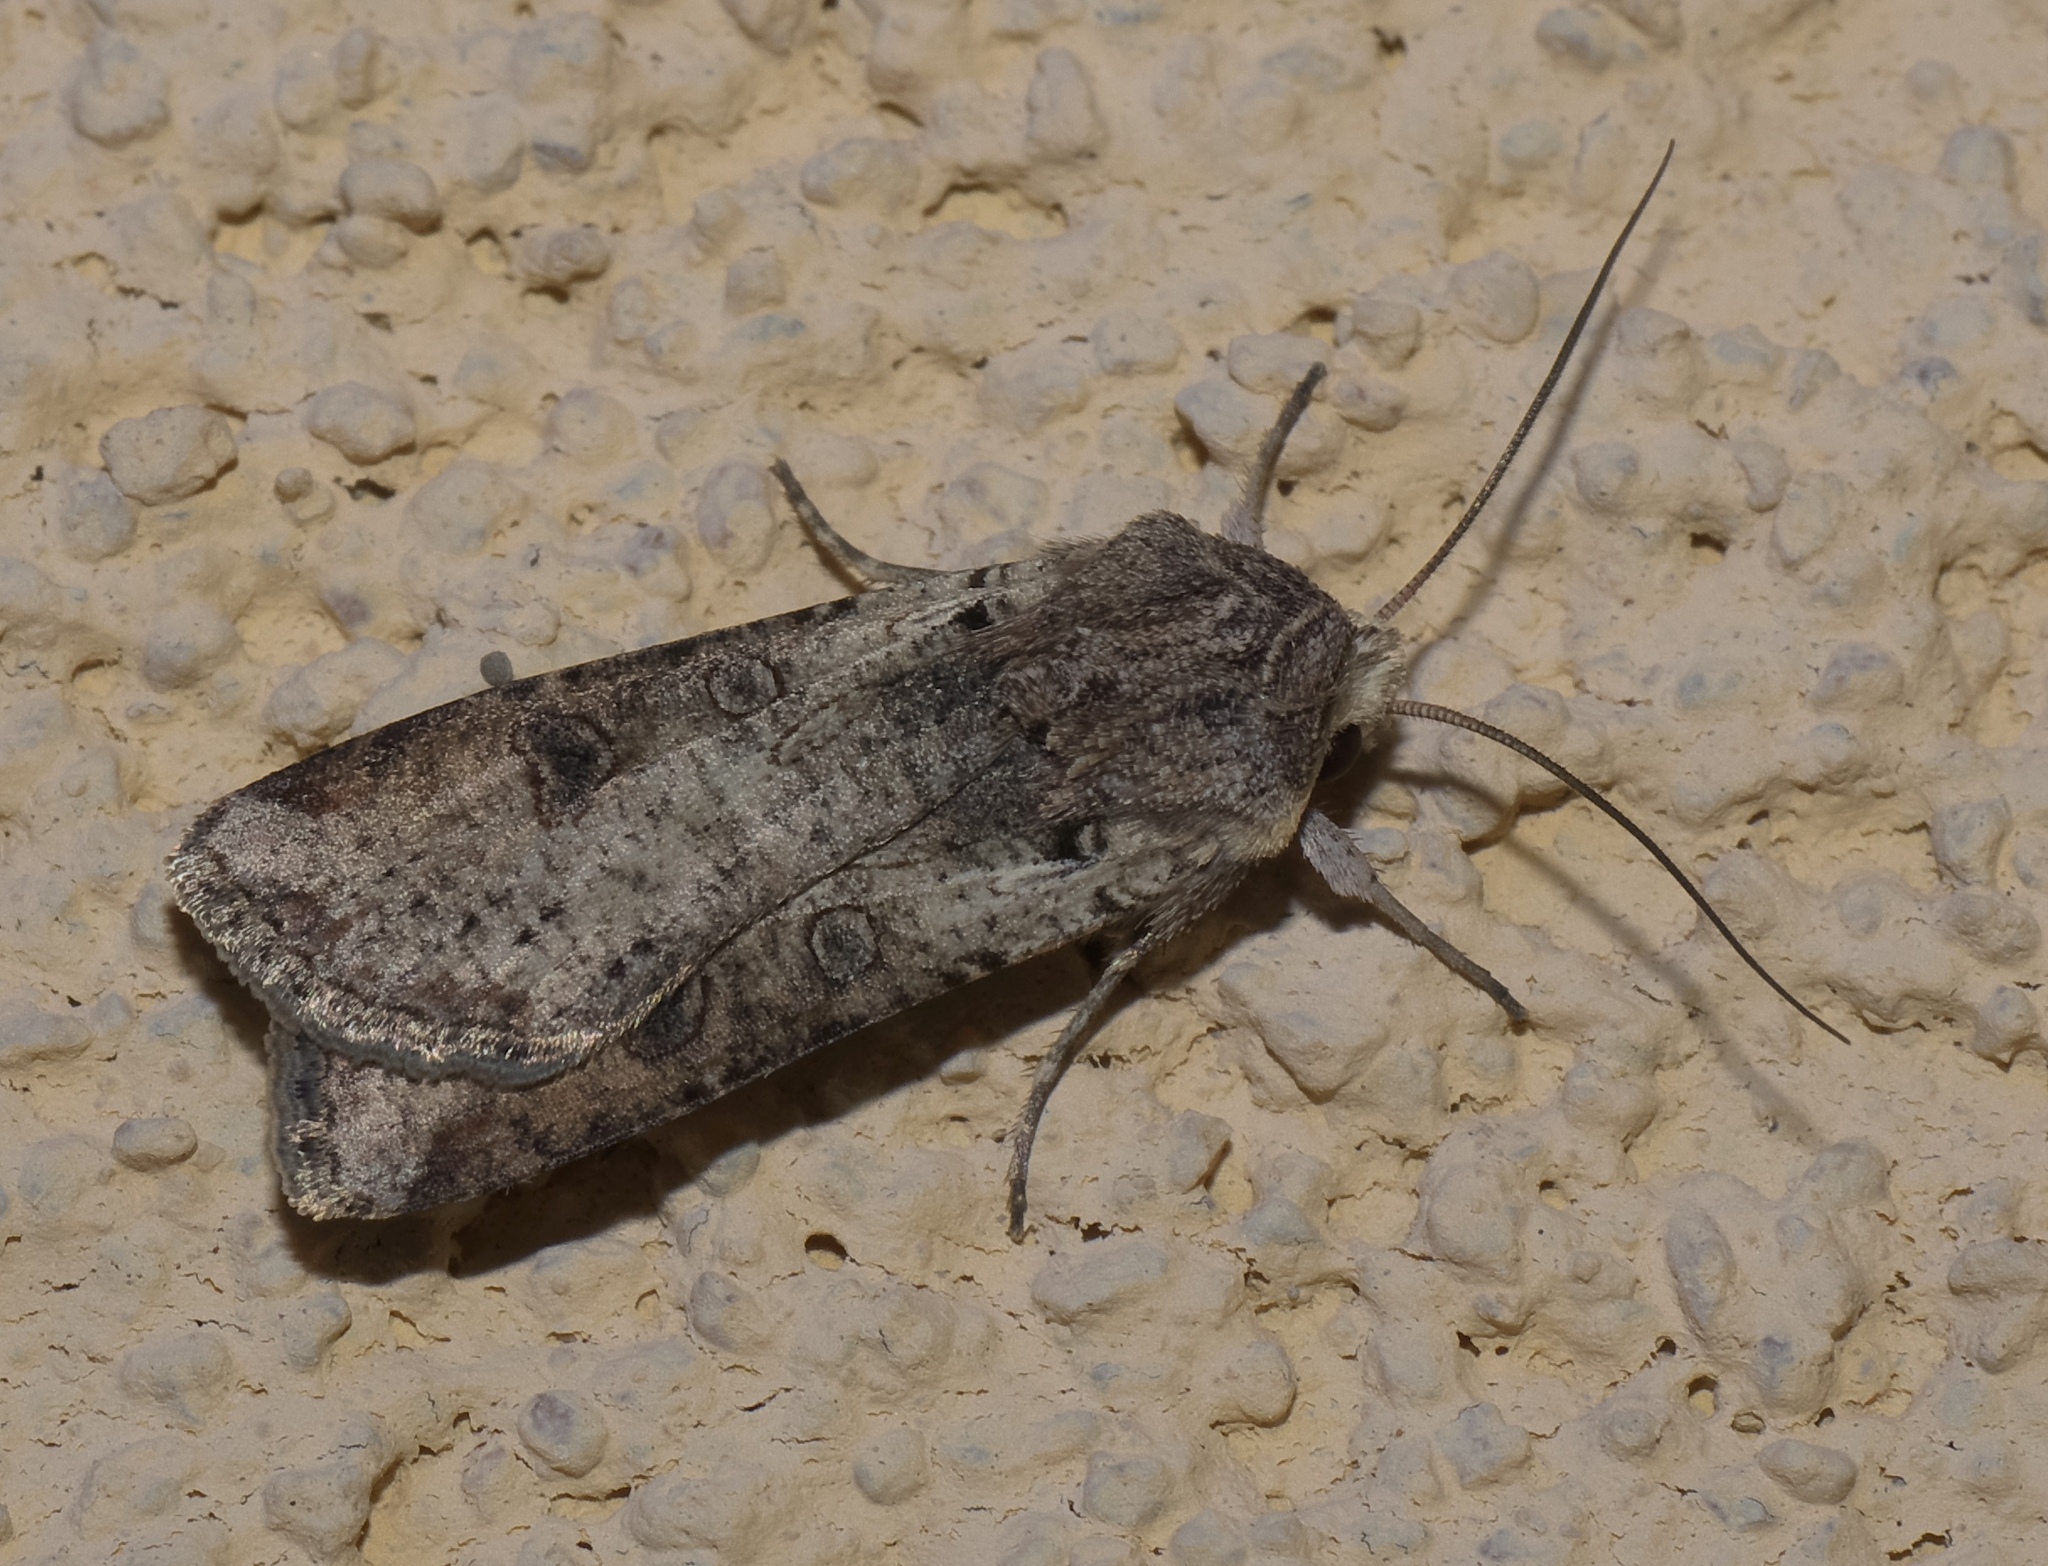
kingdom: Animalia
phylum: Arthropoda
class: Insecta
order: Lepidoptera
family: Noctuidae
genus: Hemieuxoa
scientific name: Hemieuxoa rudens
